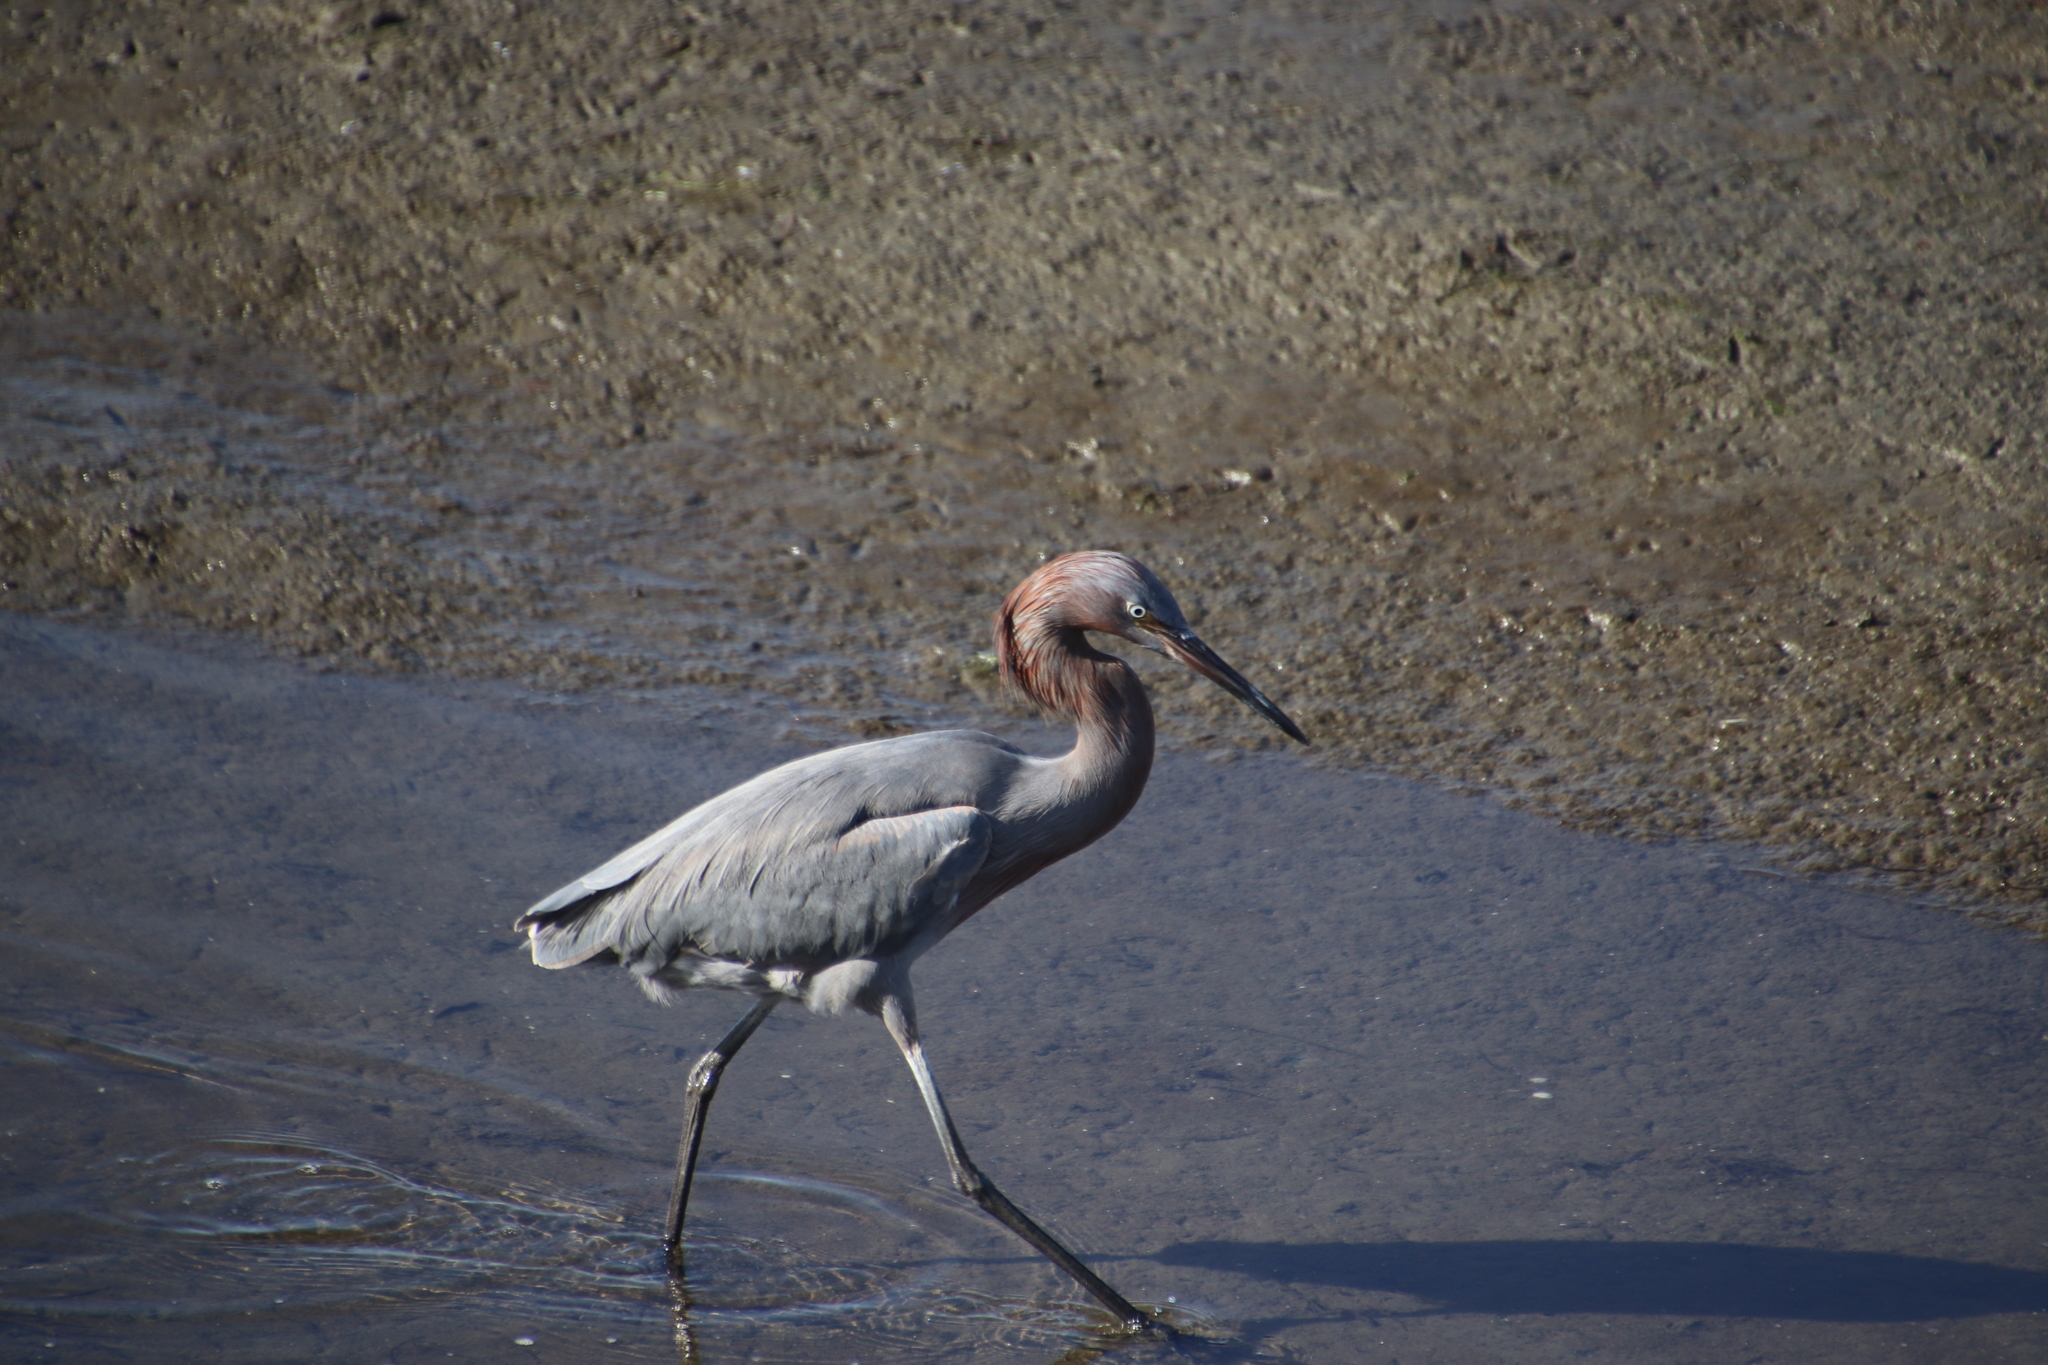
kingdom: Animalia
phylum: Chordata
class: Aves
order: Pelecaniformes
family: Ardeidae
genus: Egretta
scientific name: Egretta rufescens
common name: Reddish egret
